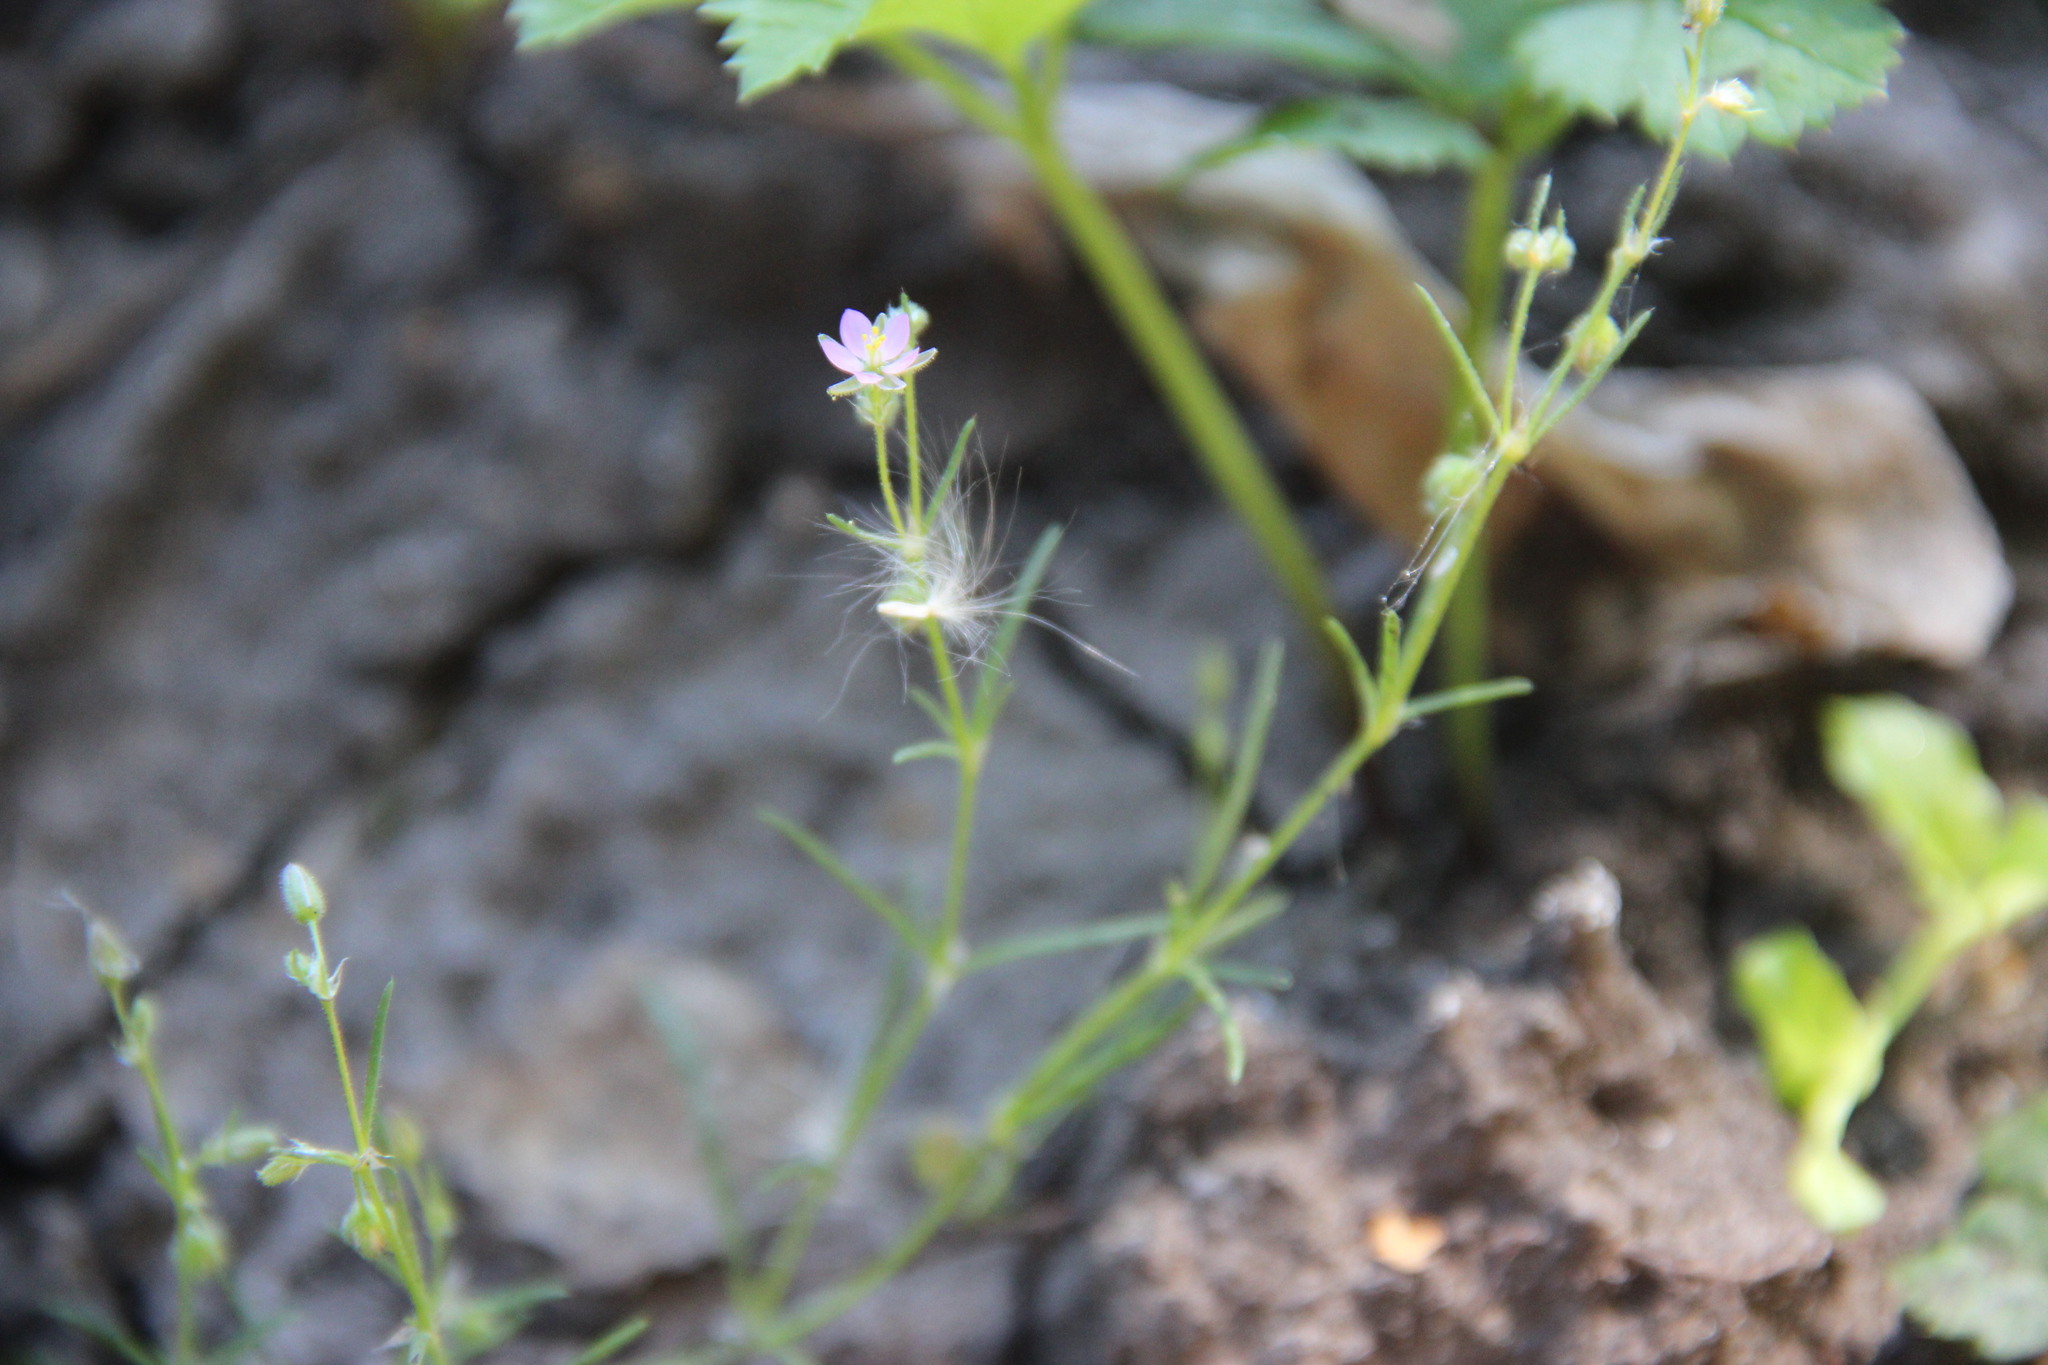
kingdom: Plantae
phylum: Tracheophyta
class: Magnoliopsida
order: Caryophyllales
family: Caryophyllaceae
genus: Spergularia
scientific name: Spergularia rubra
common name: Red sand-spurrey
